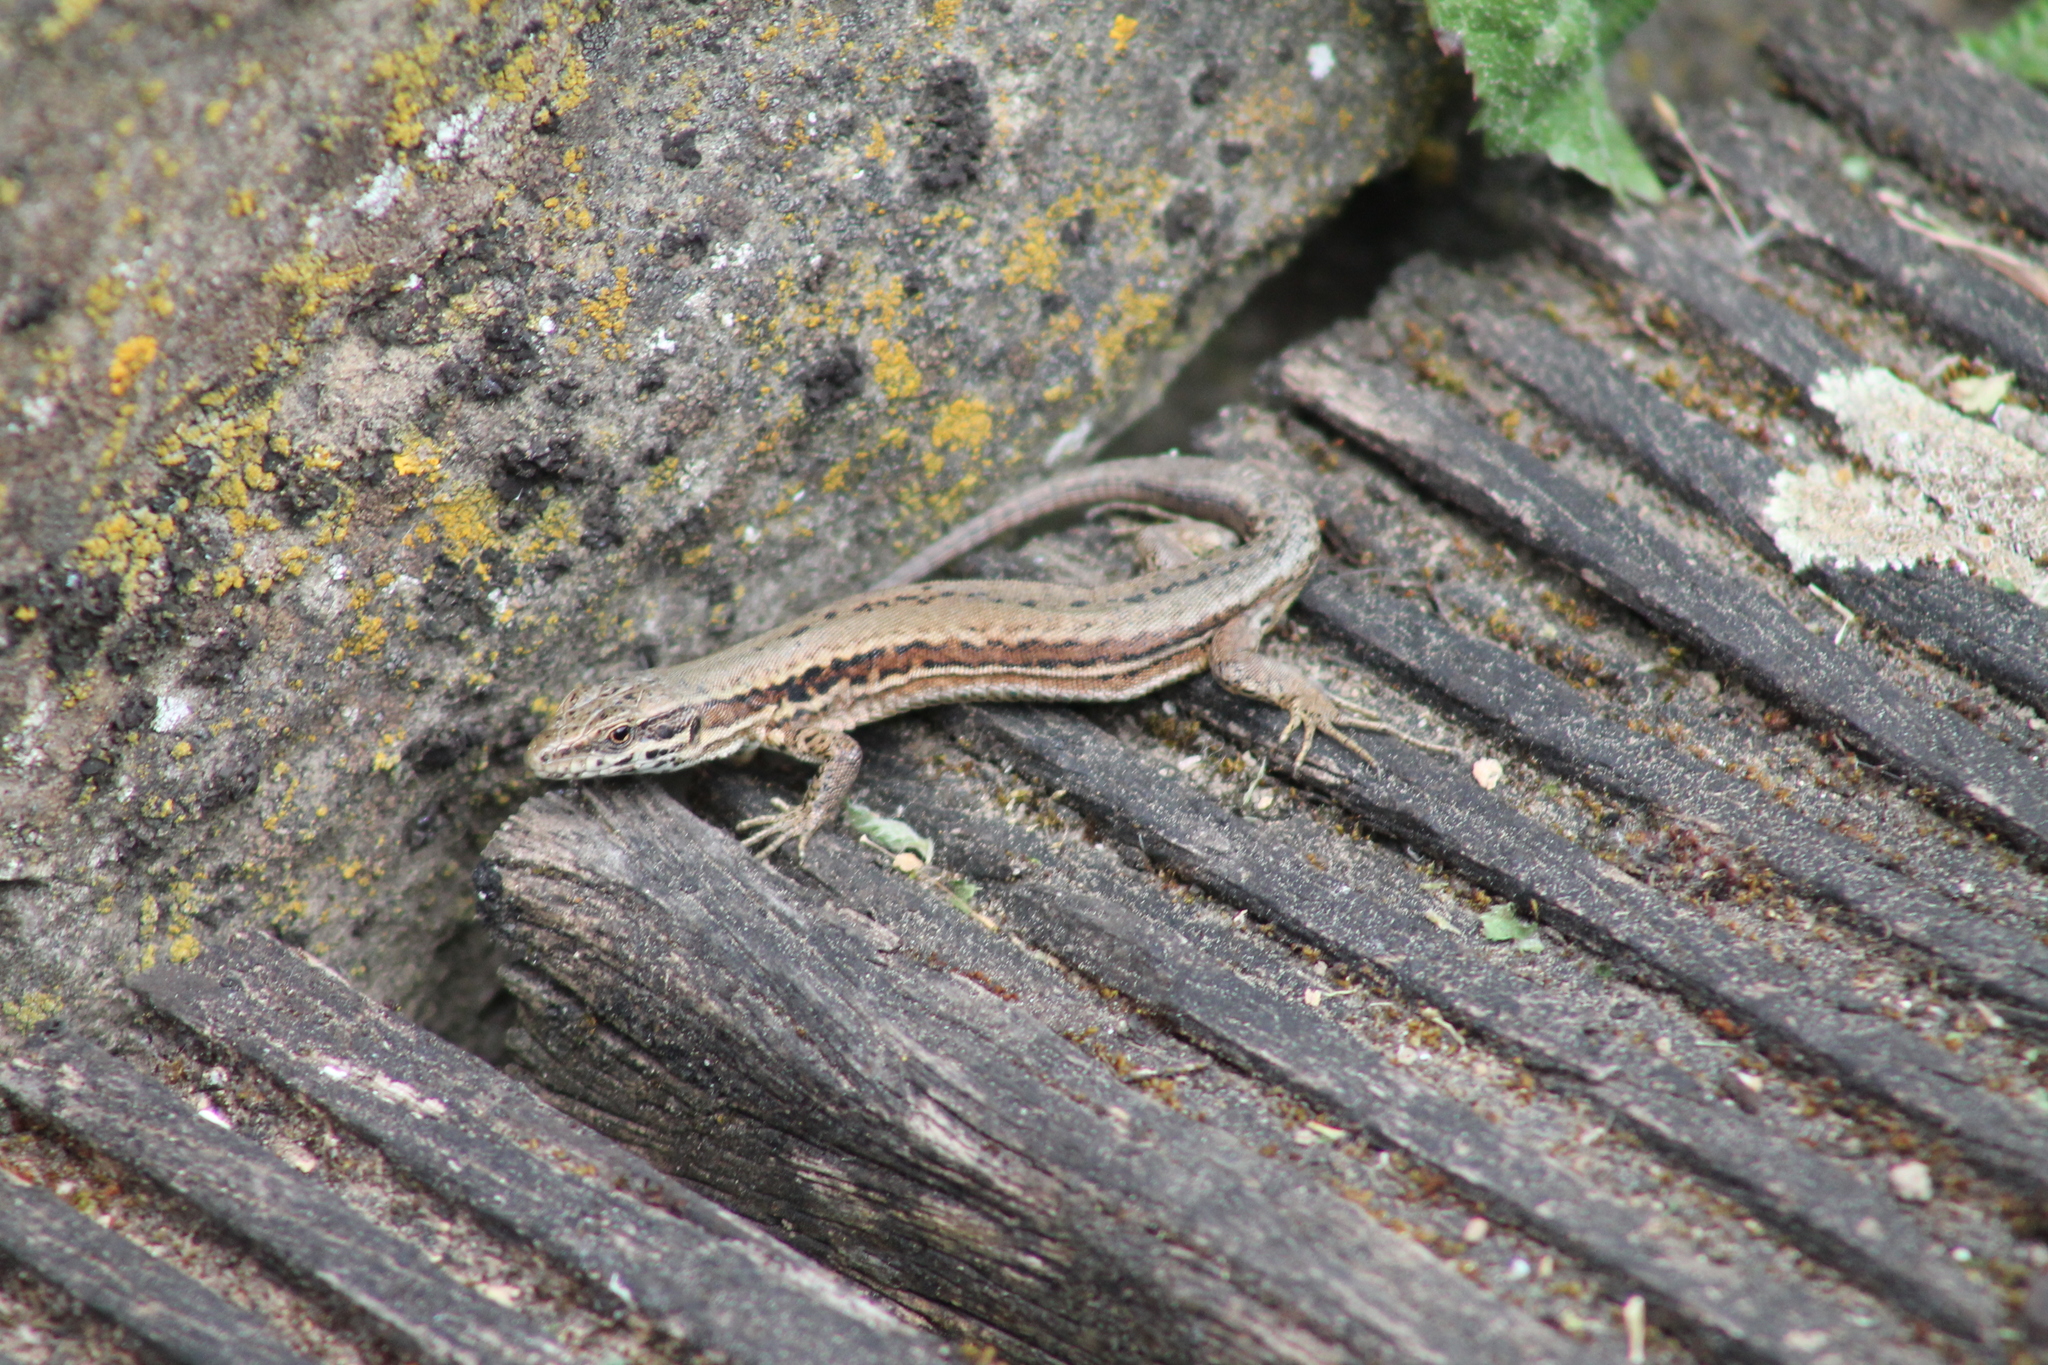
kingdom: Animalia
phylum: Chordata
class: Squamata
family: Lacertidae
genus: Podarcis
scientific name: Podarcis muralis
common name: Common wall lizard
